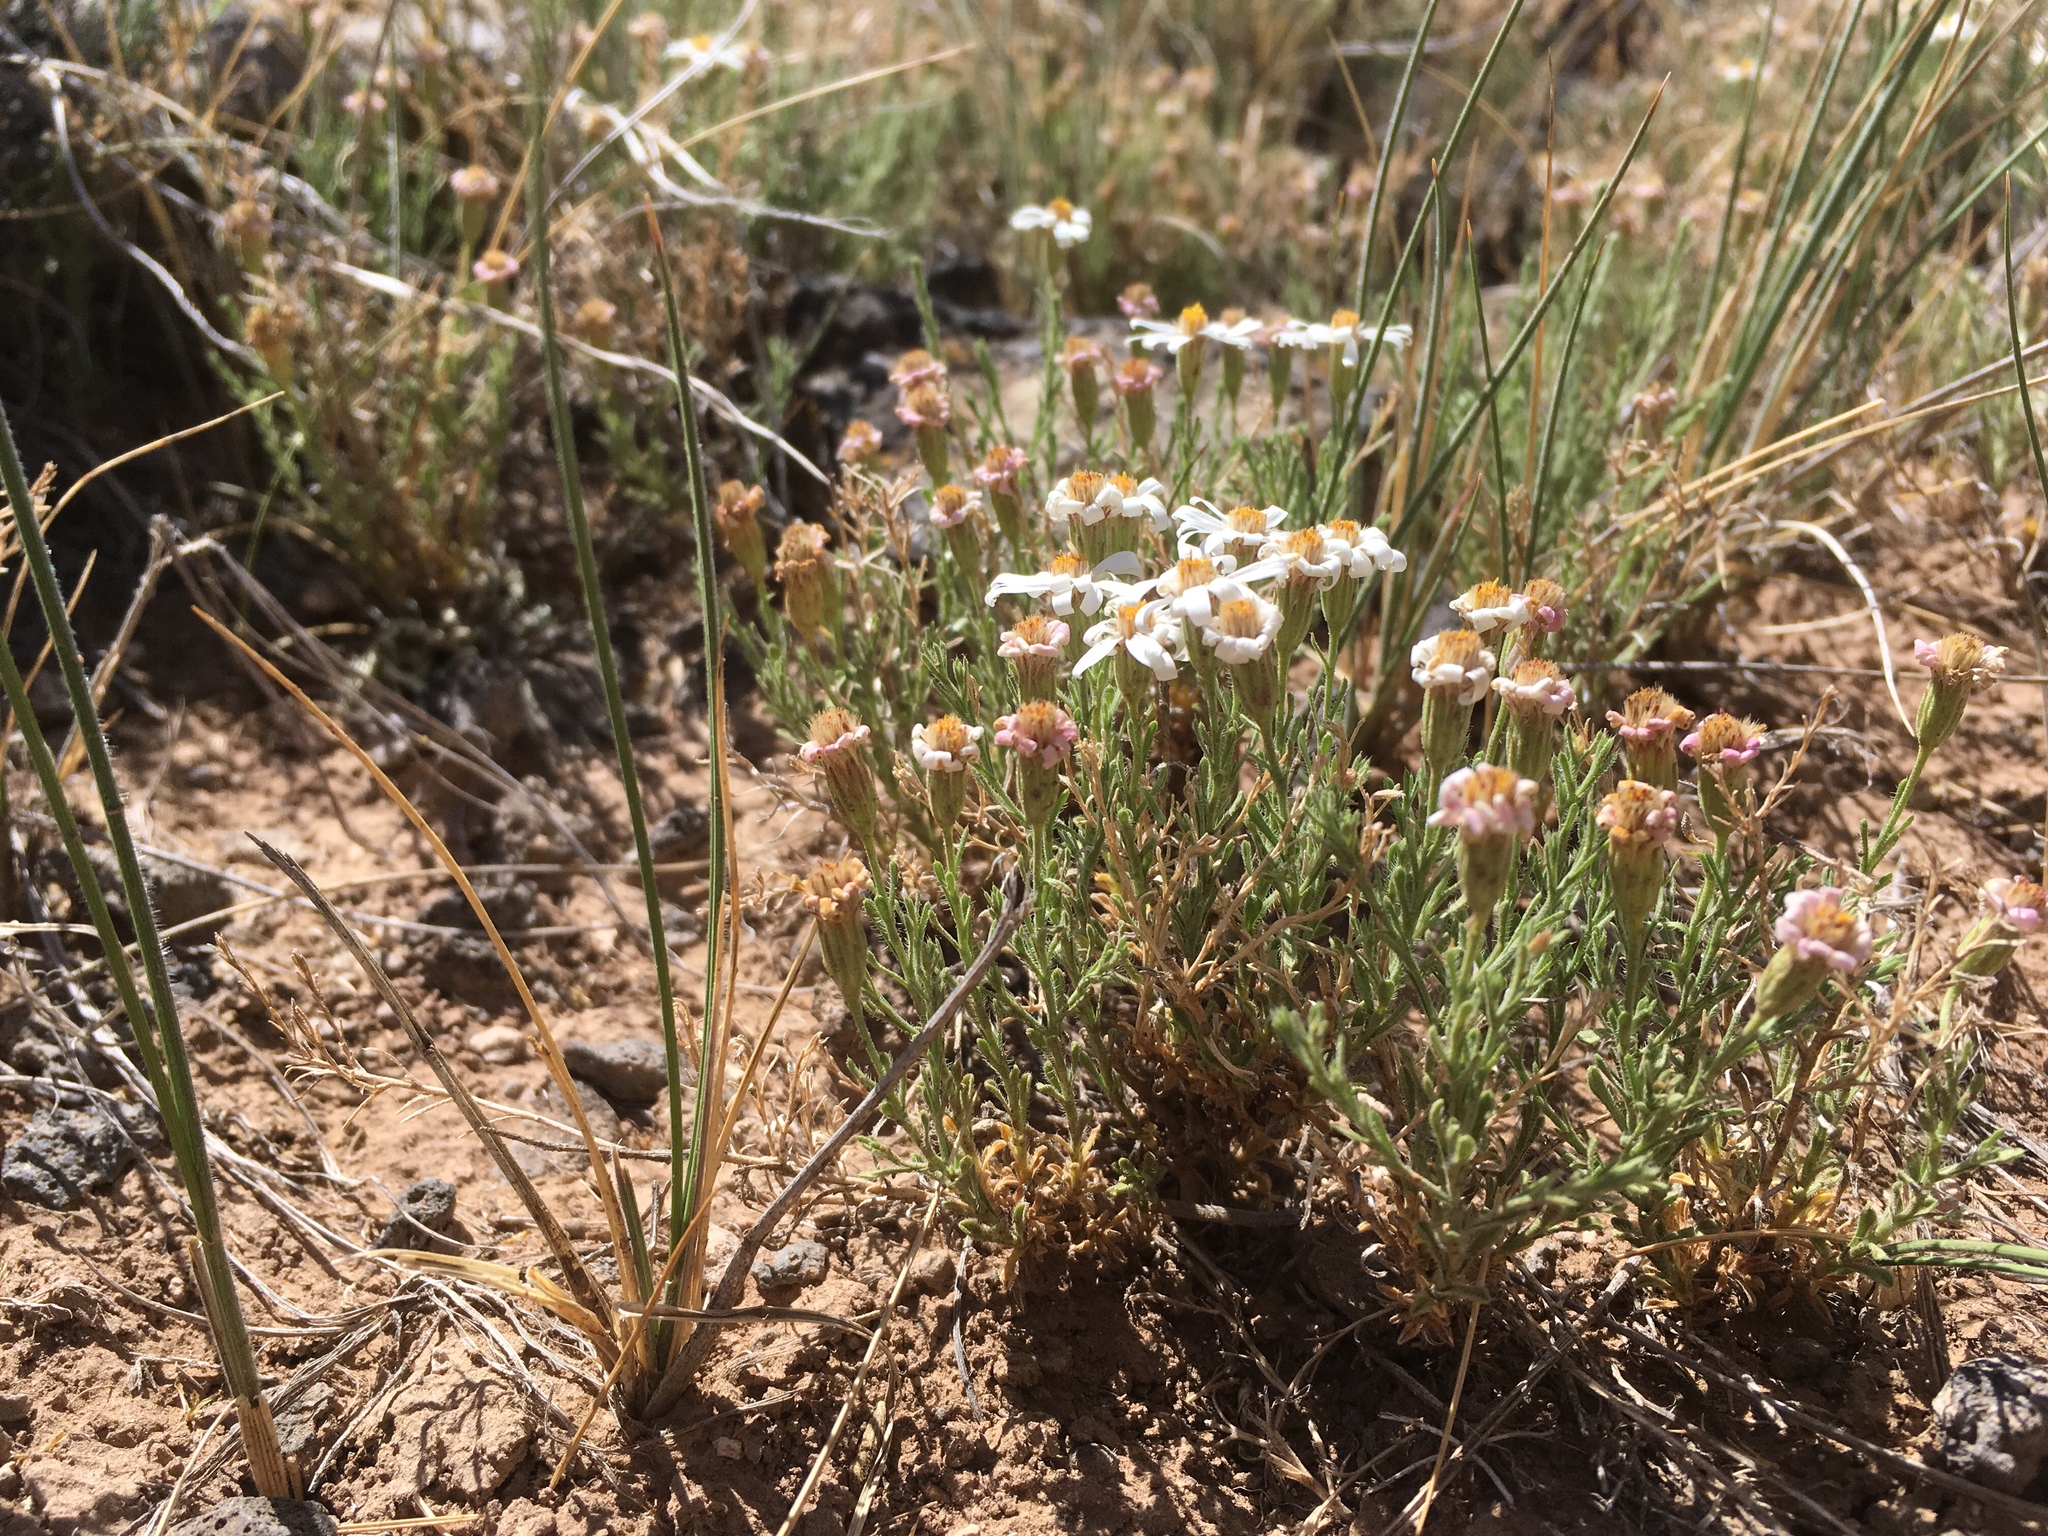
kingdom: Plantae
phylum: Tracheophyta
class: Magnoliopsida
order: Asterales
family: Asteraceae
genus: Chaetopappa
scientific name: Chaetopappa ericoides
